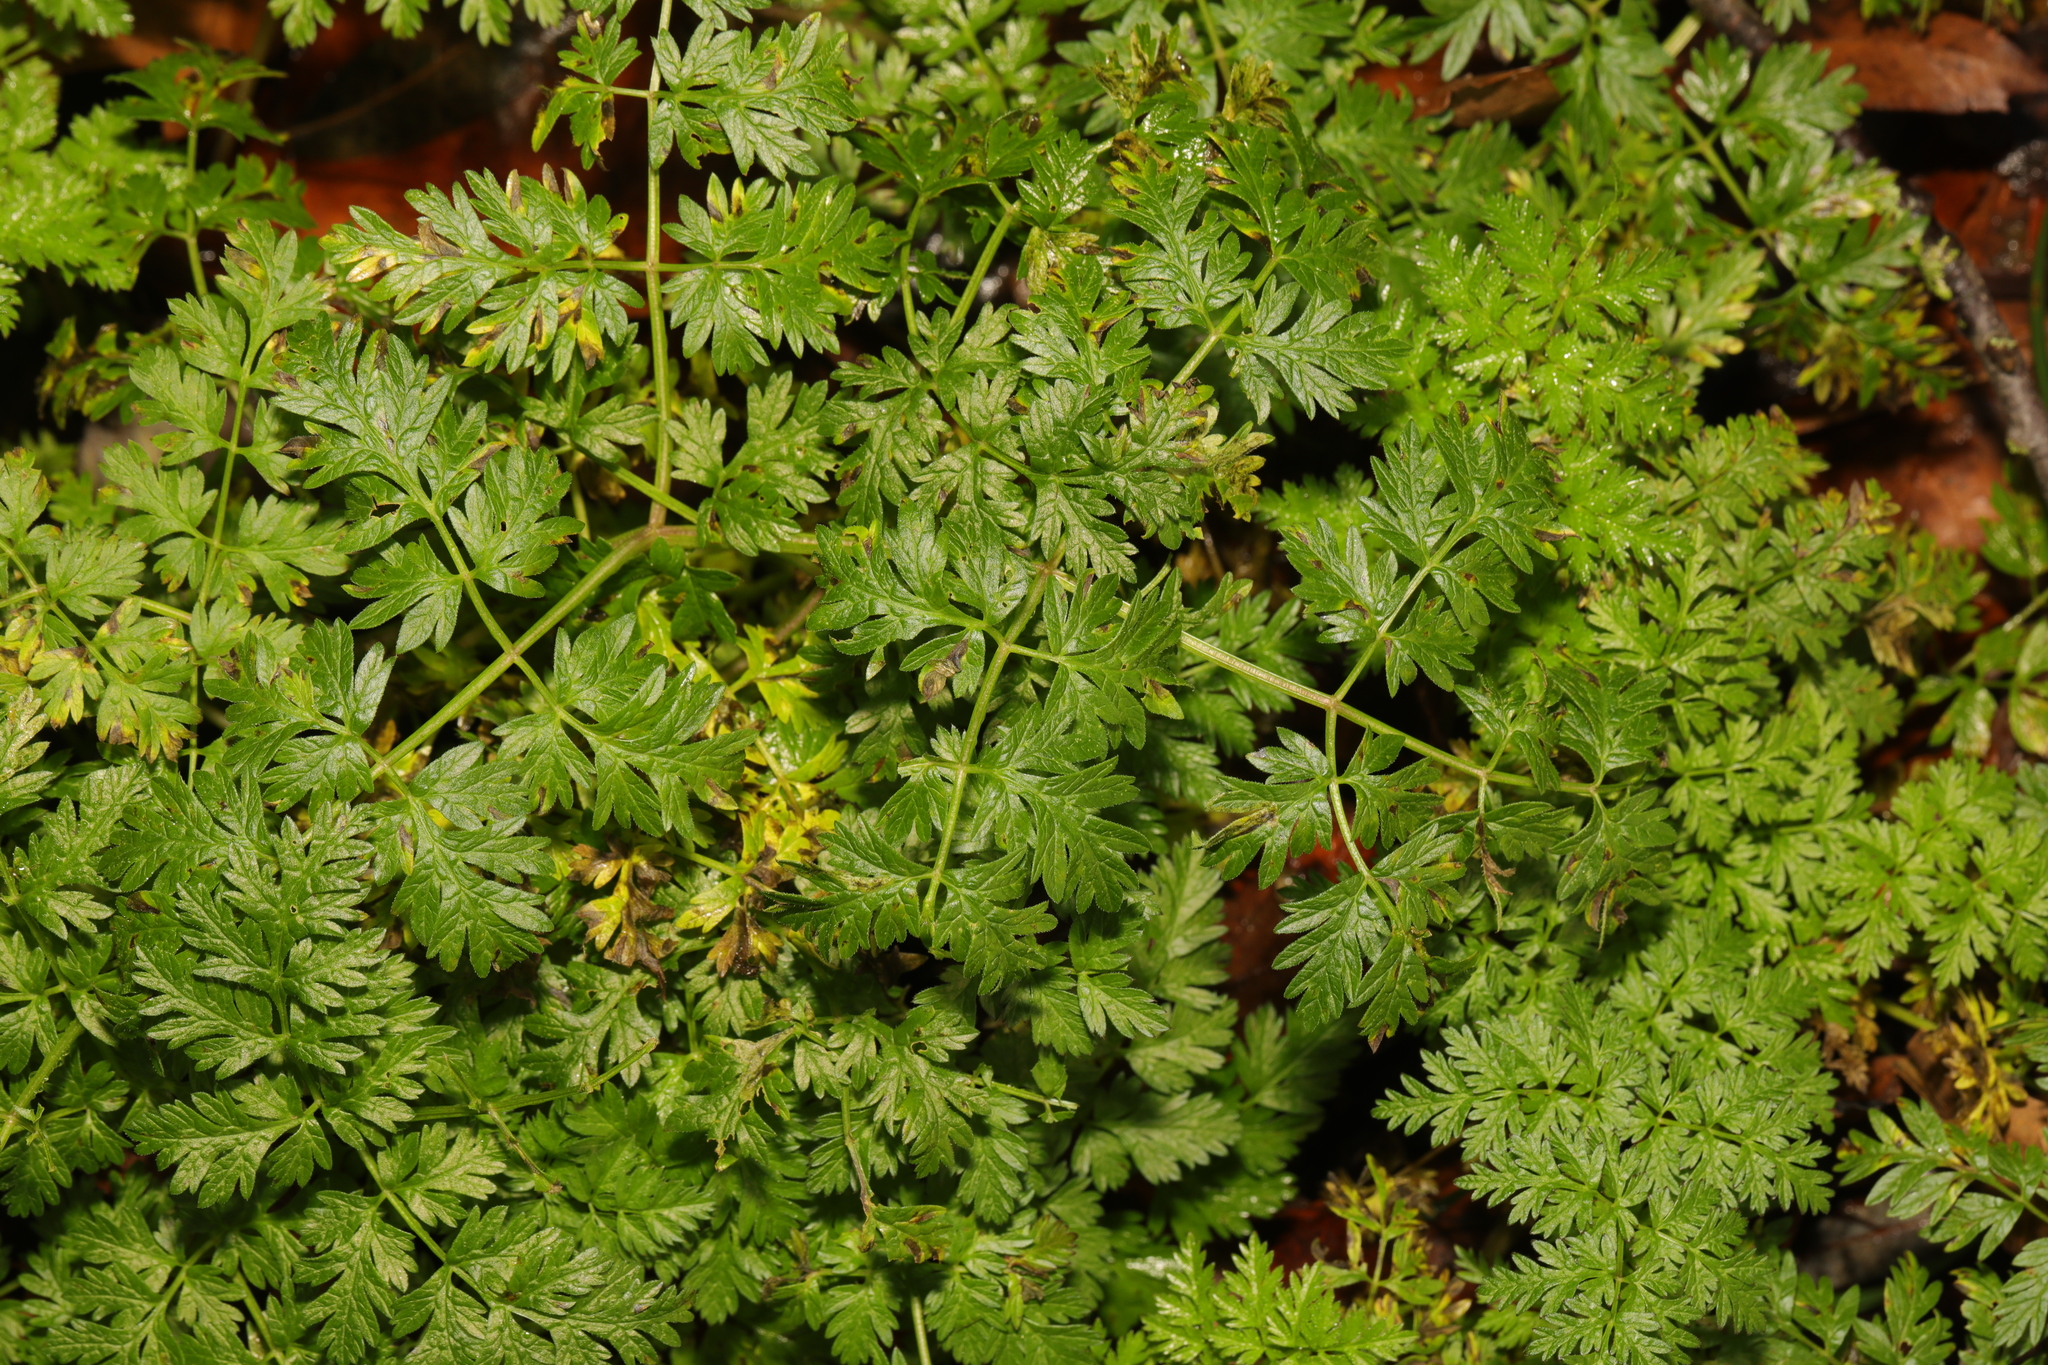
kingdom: Plantae
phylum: Tracheophyta
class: Magnoliopsida
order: Apiales
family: Apiaceae
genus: Anthriscus
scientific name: Anthriscus sylvestris
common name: Cow parsley
